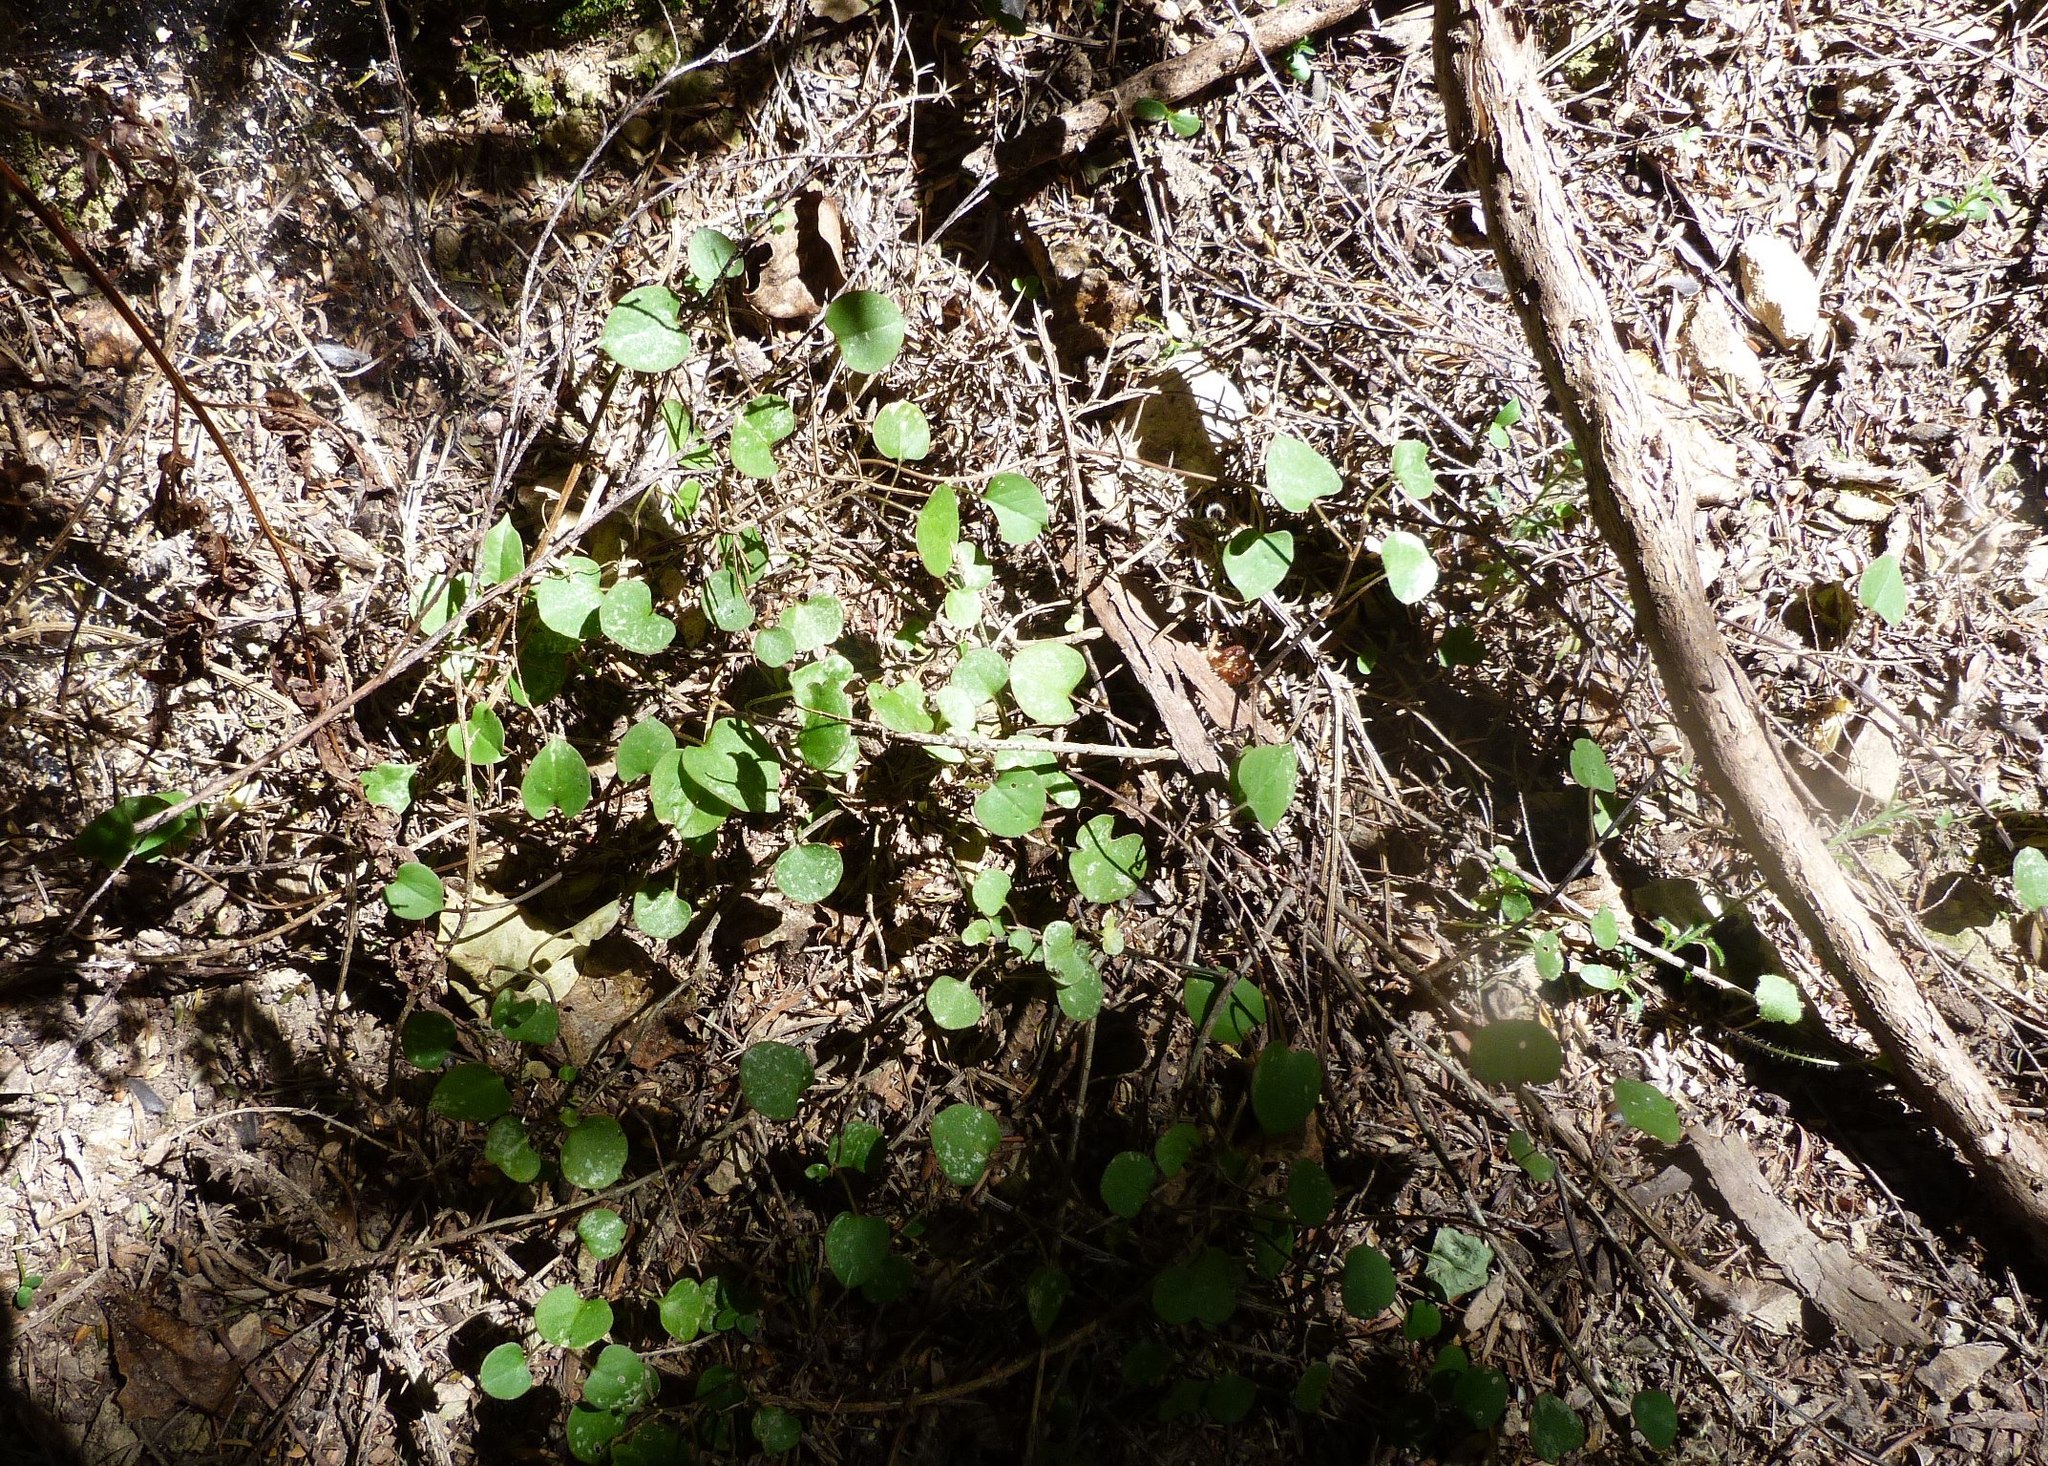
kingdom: Plantae
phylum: Tracheophyta
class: Magnoliopsida
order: Caryophyllales
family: Polygonaceae
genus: Muehlenbeckia
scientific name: Muehlenbeckia
